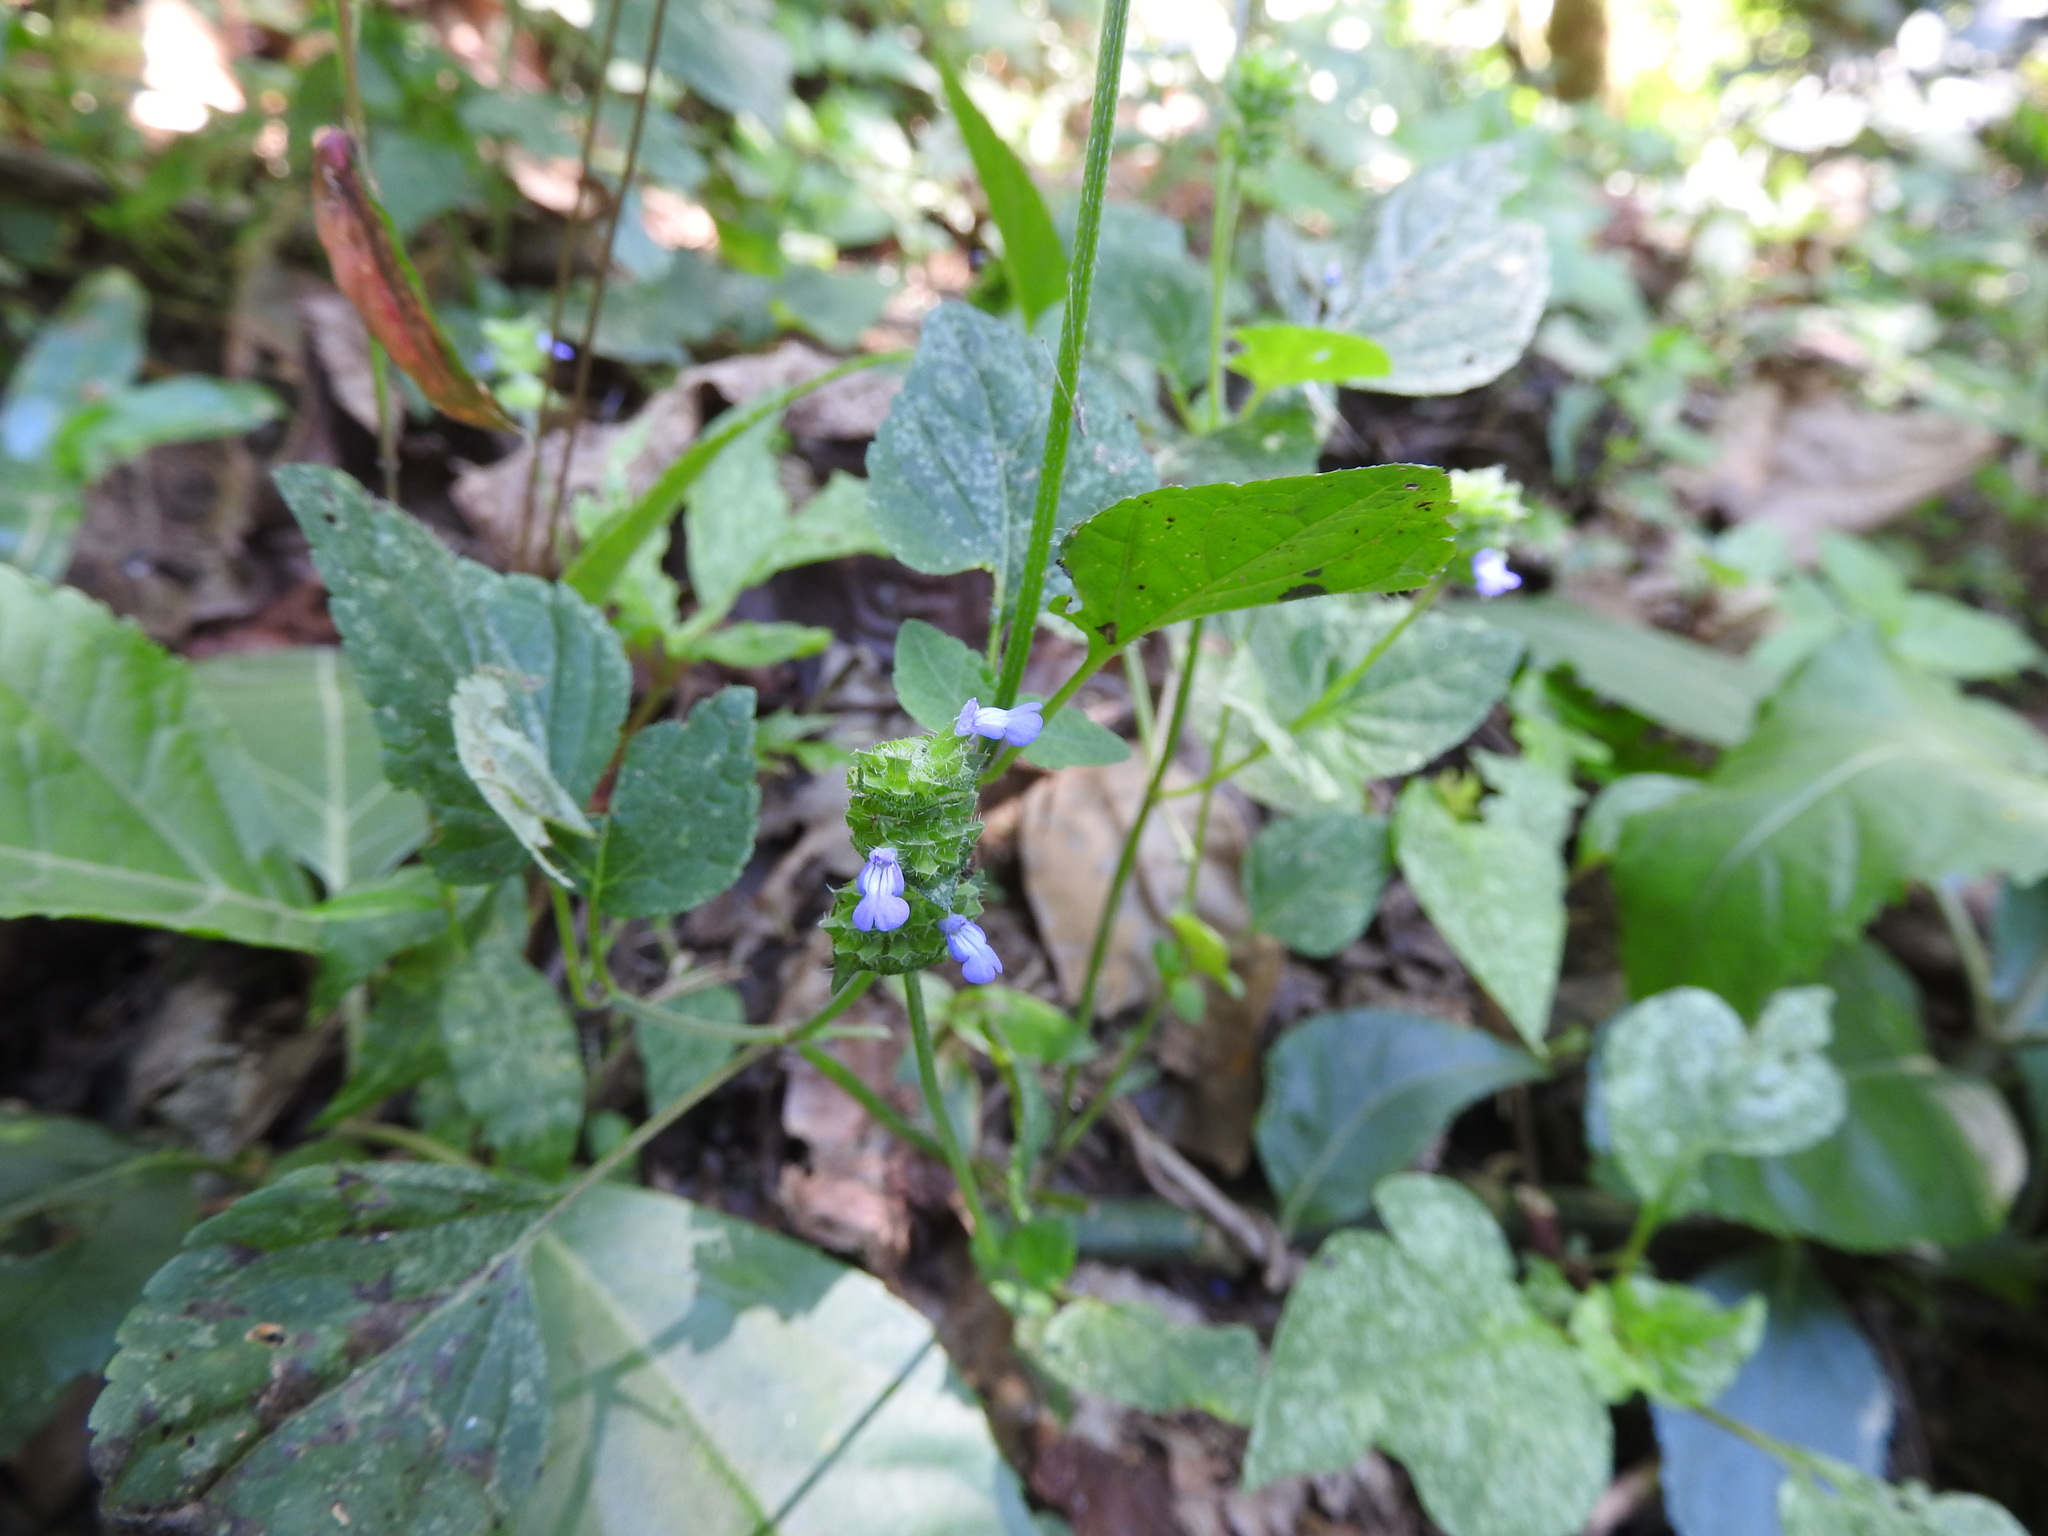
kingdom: Plantae
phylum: Tracheophyta
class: Magnoliopsida
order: Lamiales
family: Lamiaceae
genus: Salvia
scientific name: Salvia lasiocephala
